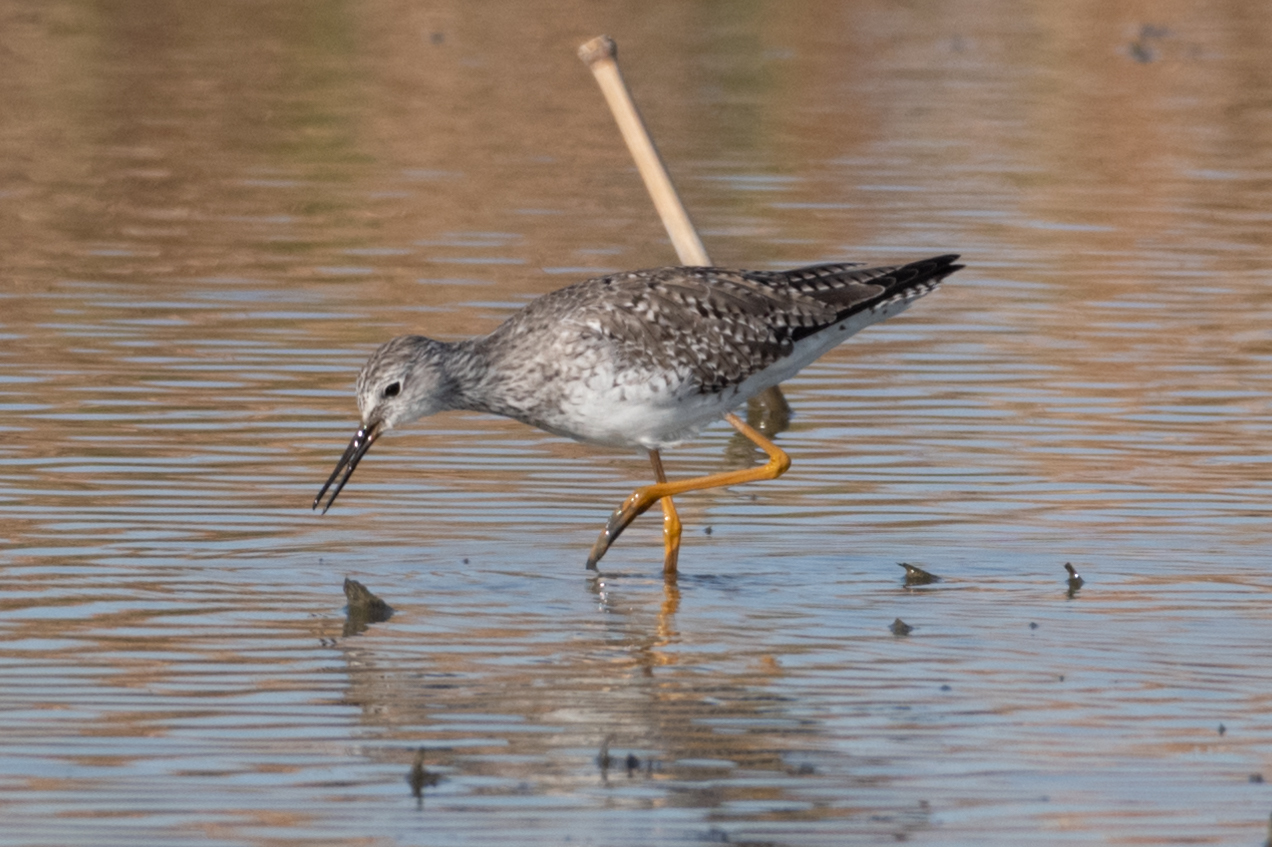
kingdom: Animalia
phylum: Chordata
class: Aves
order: Charadriiformes
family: Scolopacidae
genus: Tringa
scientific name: Tringa flavipes
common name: Lesser yellowlegs
